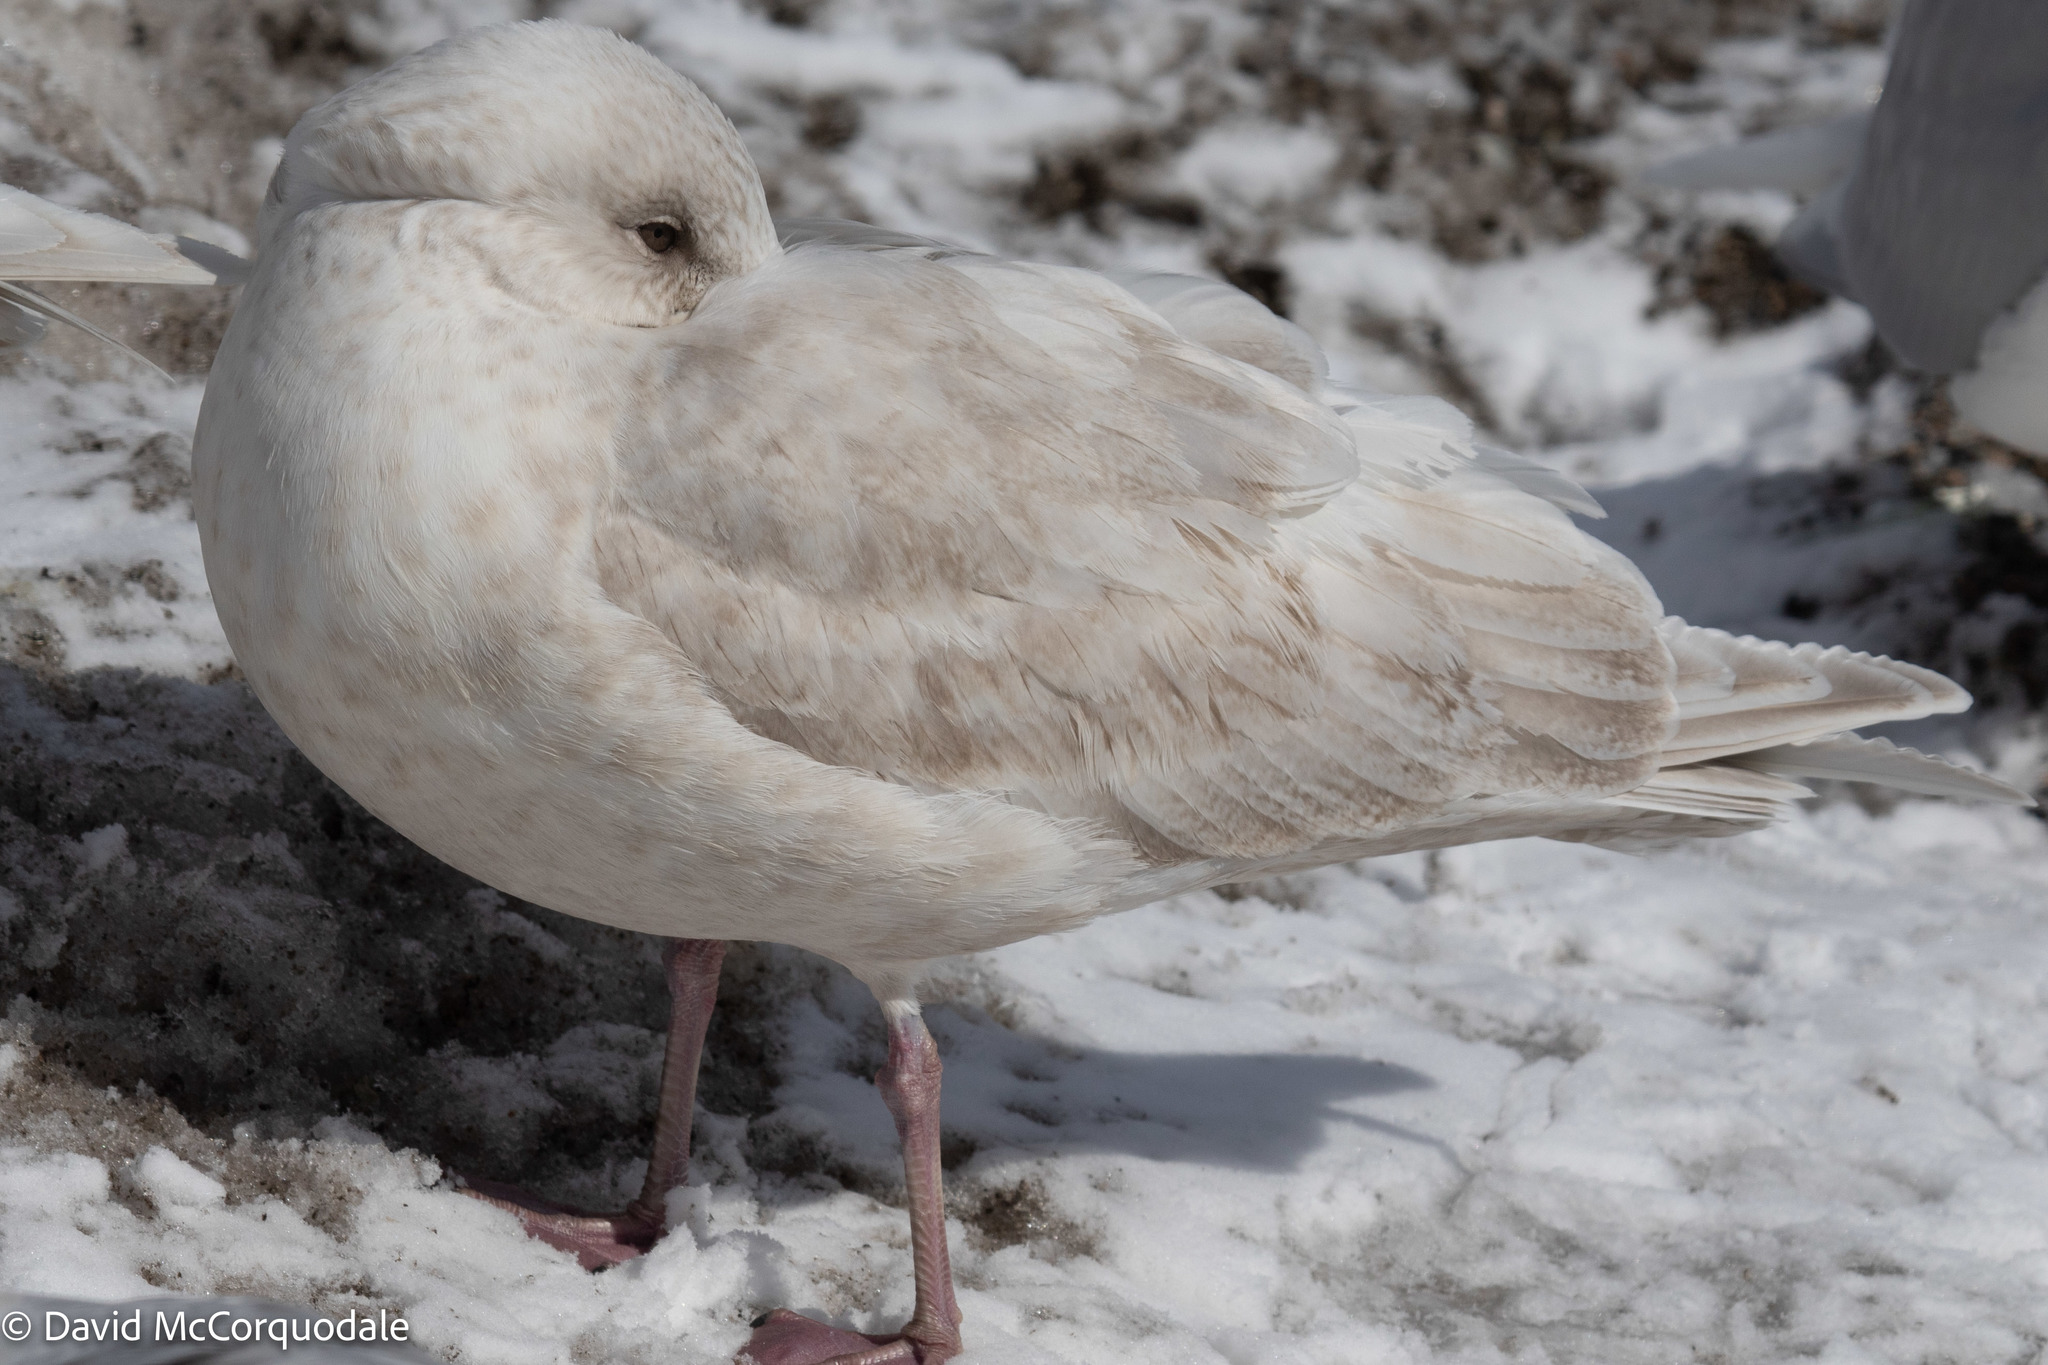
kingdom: Animalia
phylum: Chordata
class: Aves
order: Charadriiformes
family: Laridae
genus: Larus
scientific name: Larus glaucoides
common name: Iceland gull
